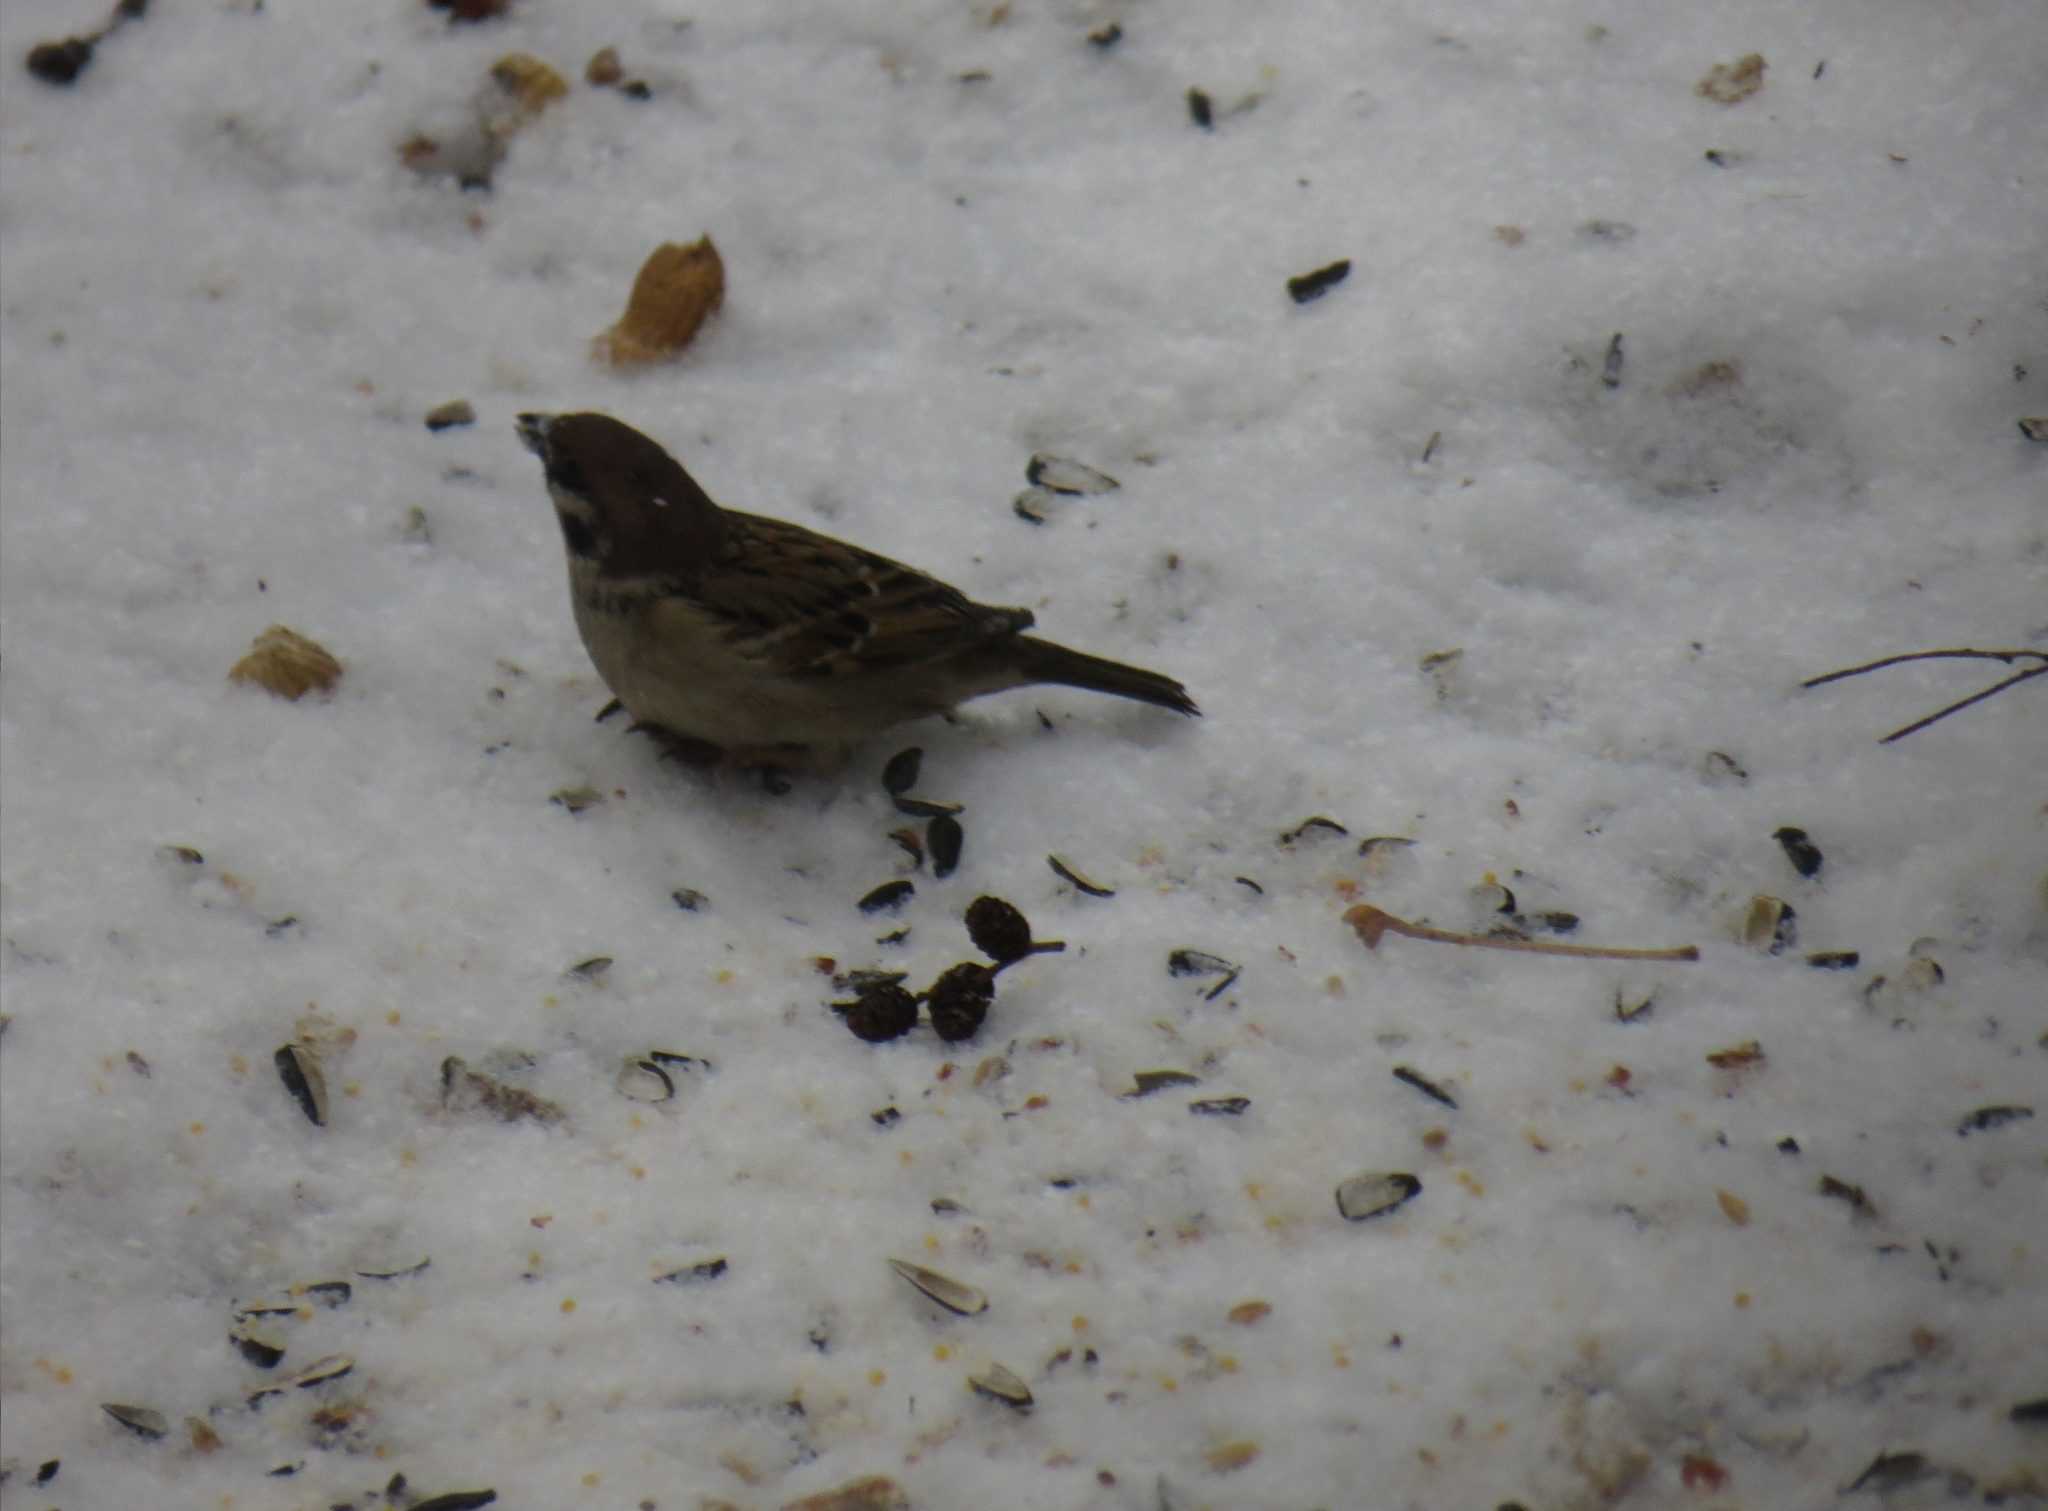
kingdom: Animalia
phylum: Chordata
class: Aves
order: Passeriformes
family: Passeridae
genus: Passer
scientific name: Passer montanus
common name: Eurasian tree sparrow
